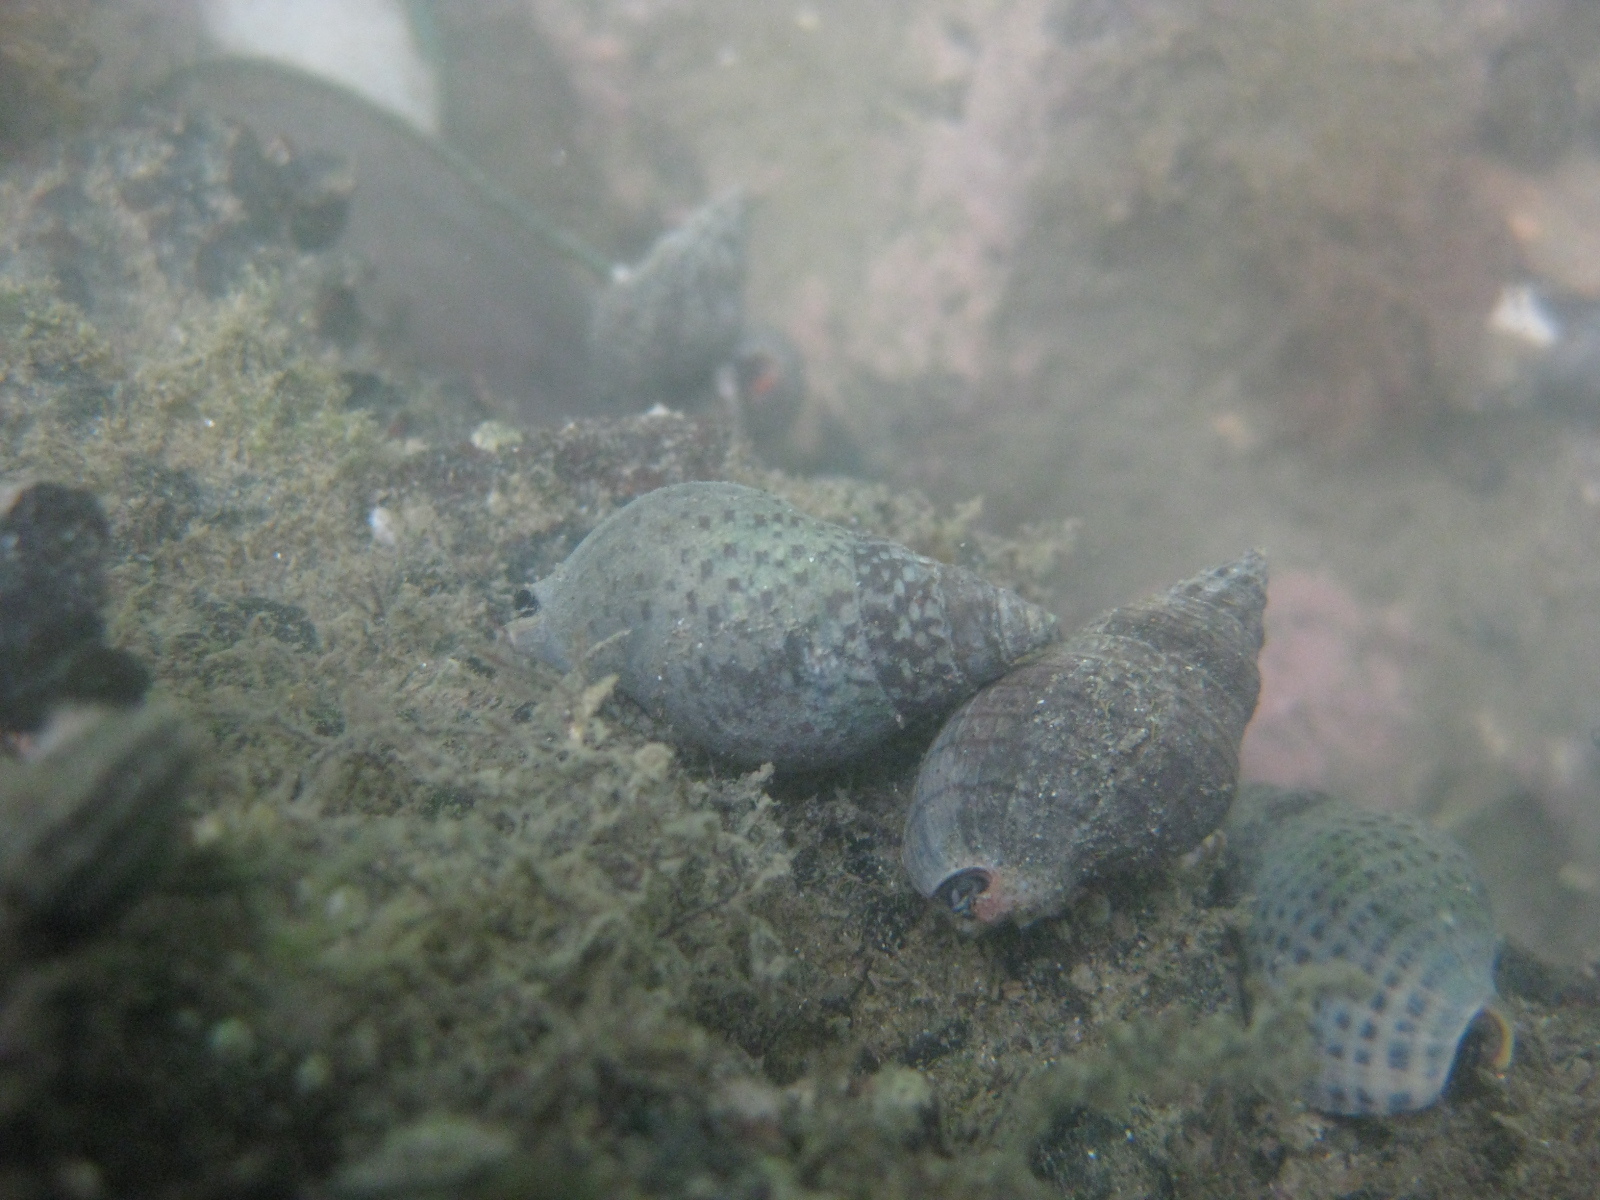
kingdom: Animalia
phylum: Mollusca
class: Gastropoda
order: Neogastropoda
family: Cominellidae
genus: Cominella
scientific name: Cominella maculosa
